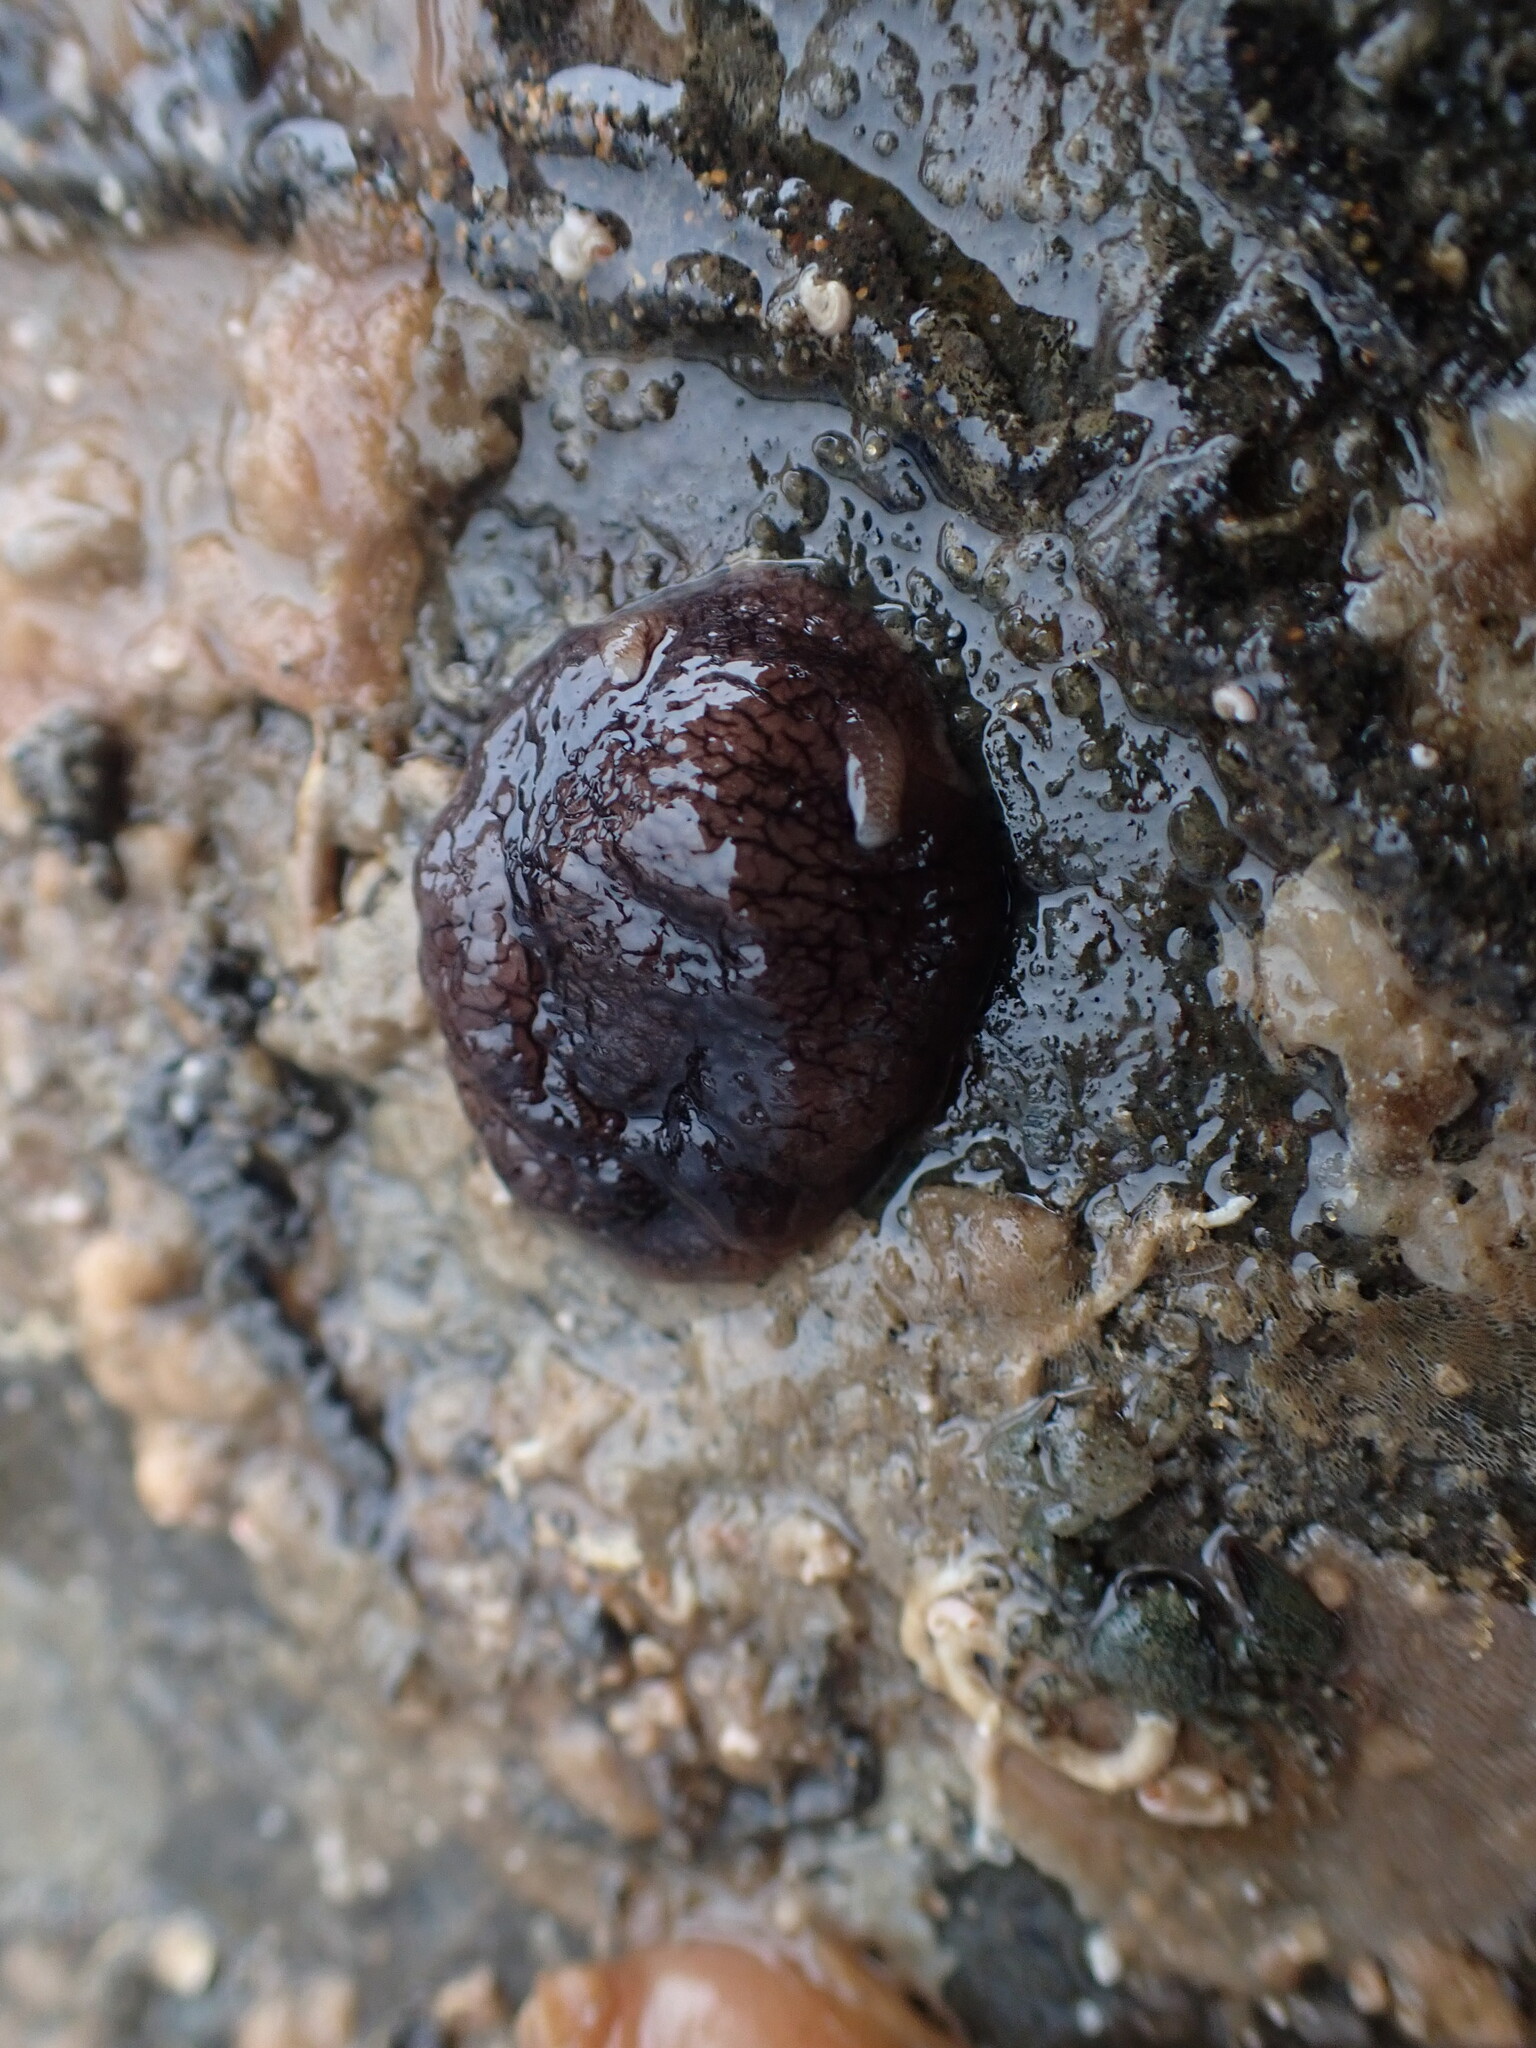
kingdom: Animalia
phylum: Mollusca
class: Gastropoda
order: Pleurobranchida
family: Pleurobranchaeidae
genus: Pleurobranchaea
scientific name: Pleurobranchaea maculata
